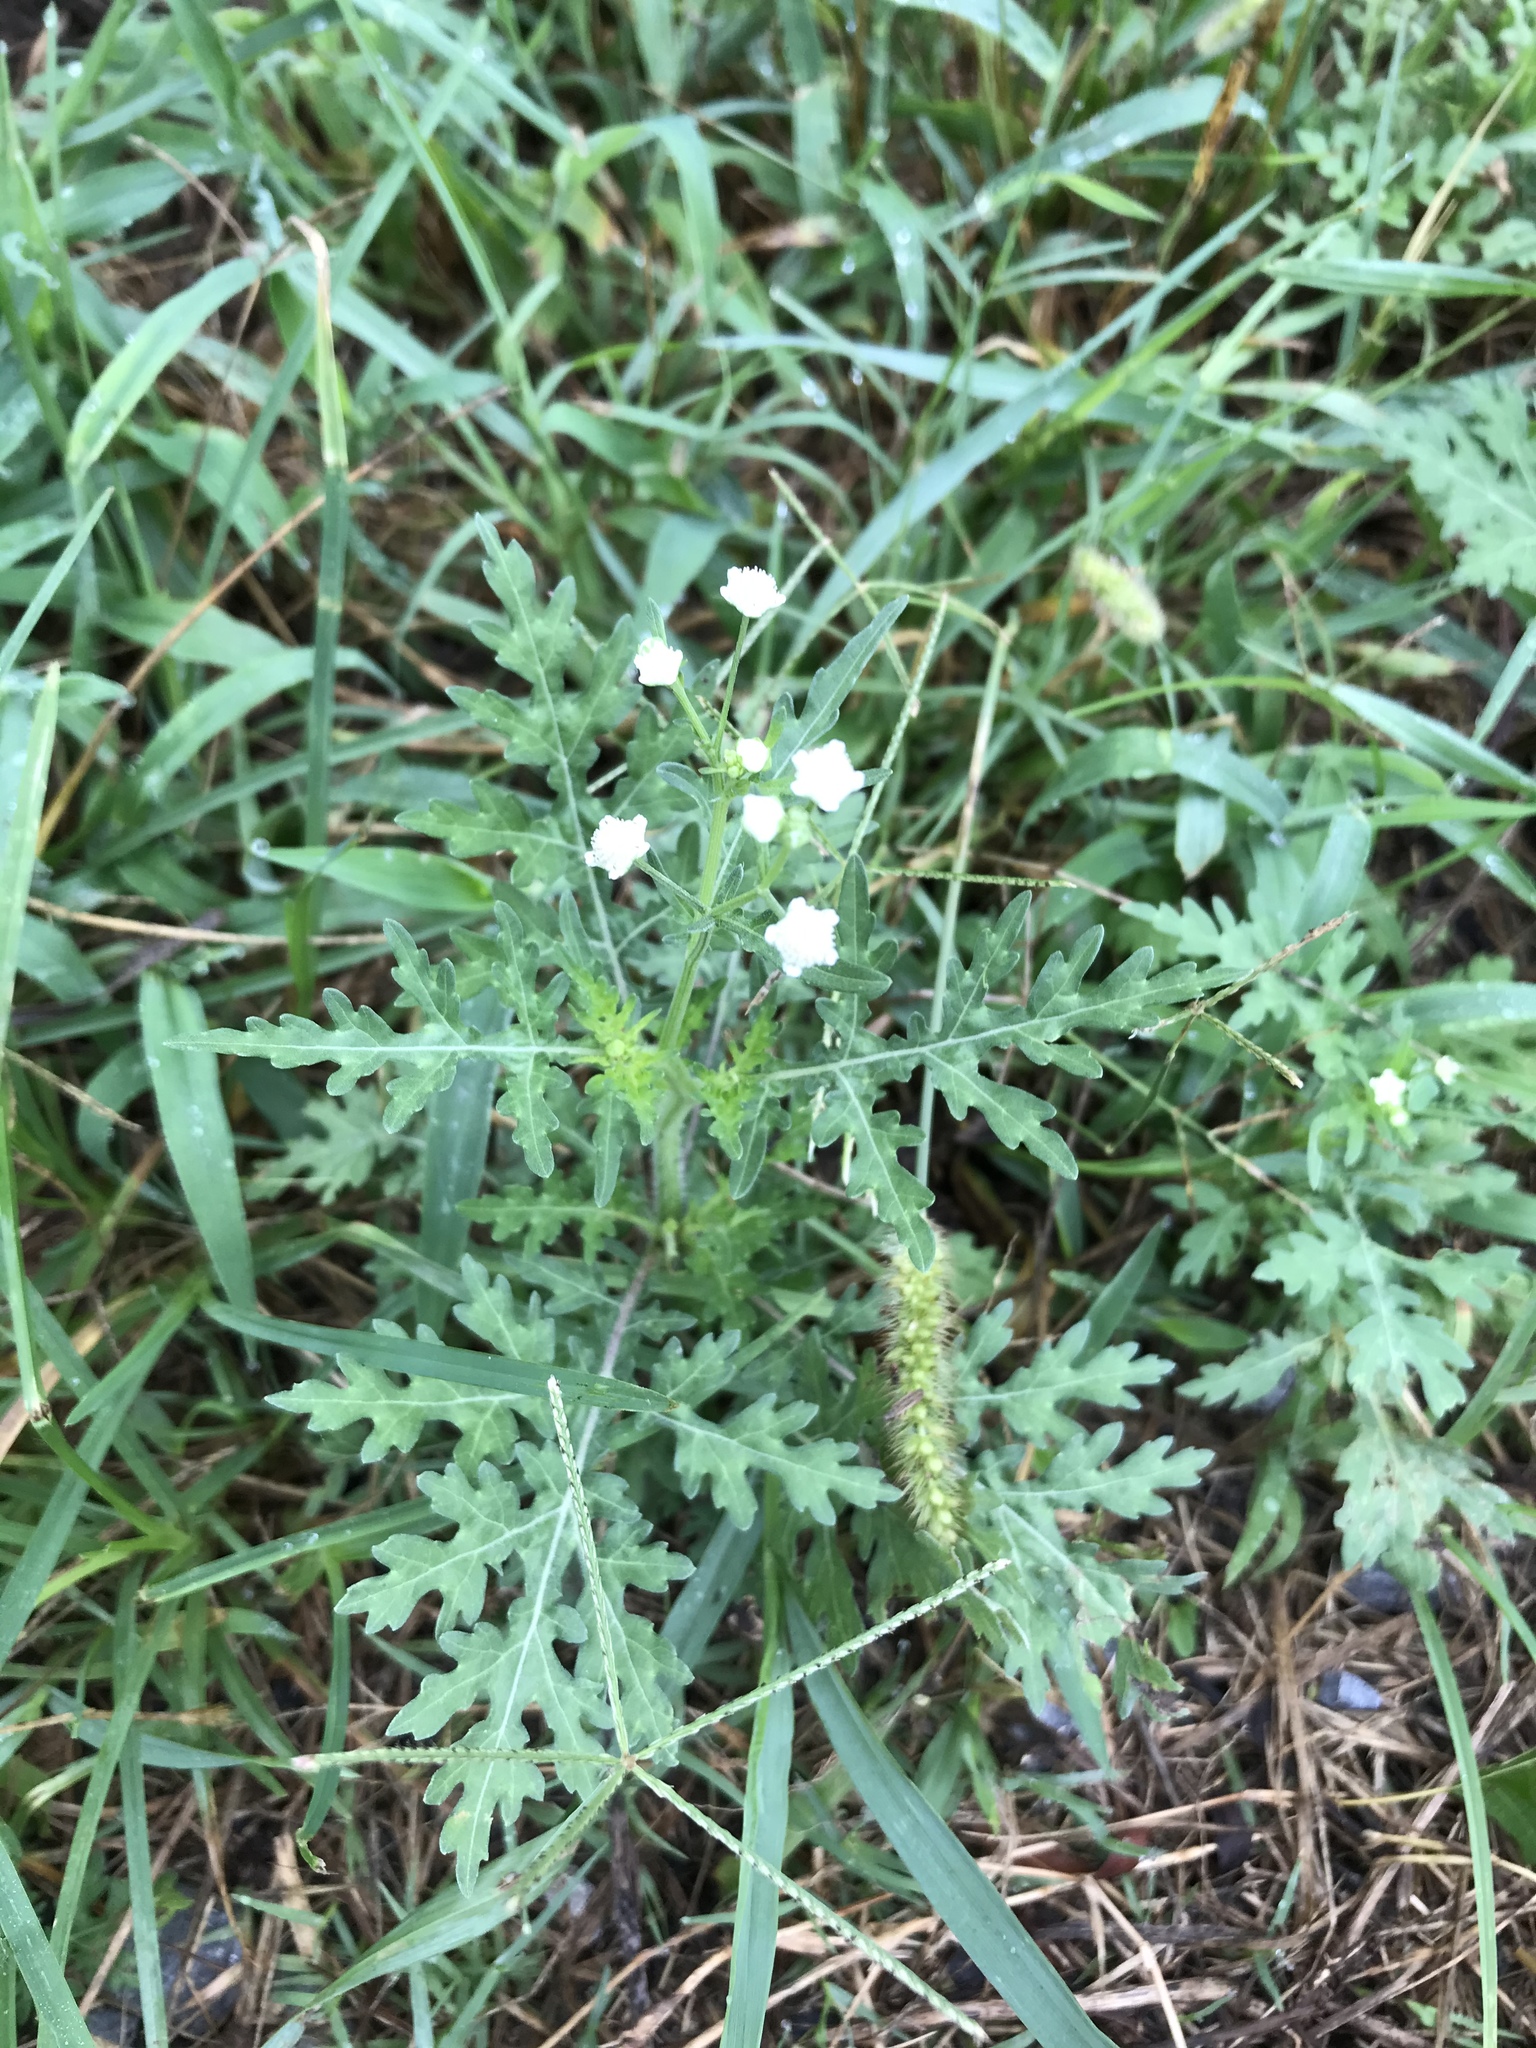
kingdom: Plantae
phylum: Tracheophyta
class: Magnoliopsida
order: Asterales
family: Asteraceae
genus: Parthenium
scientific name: Parthenium hysterophorus
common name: Santa maria feverfew
